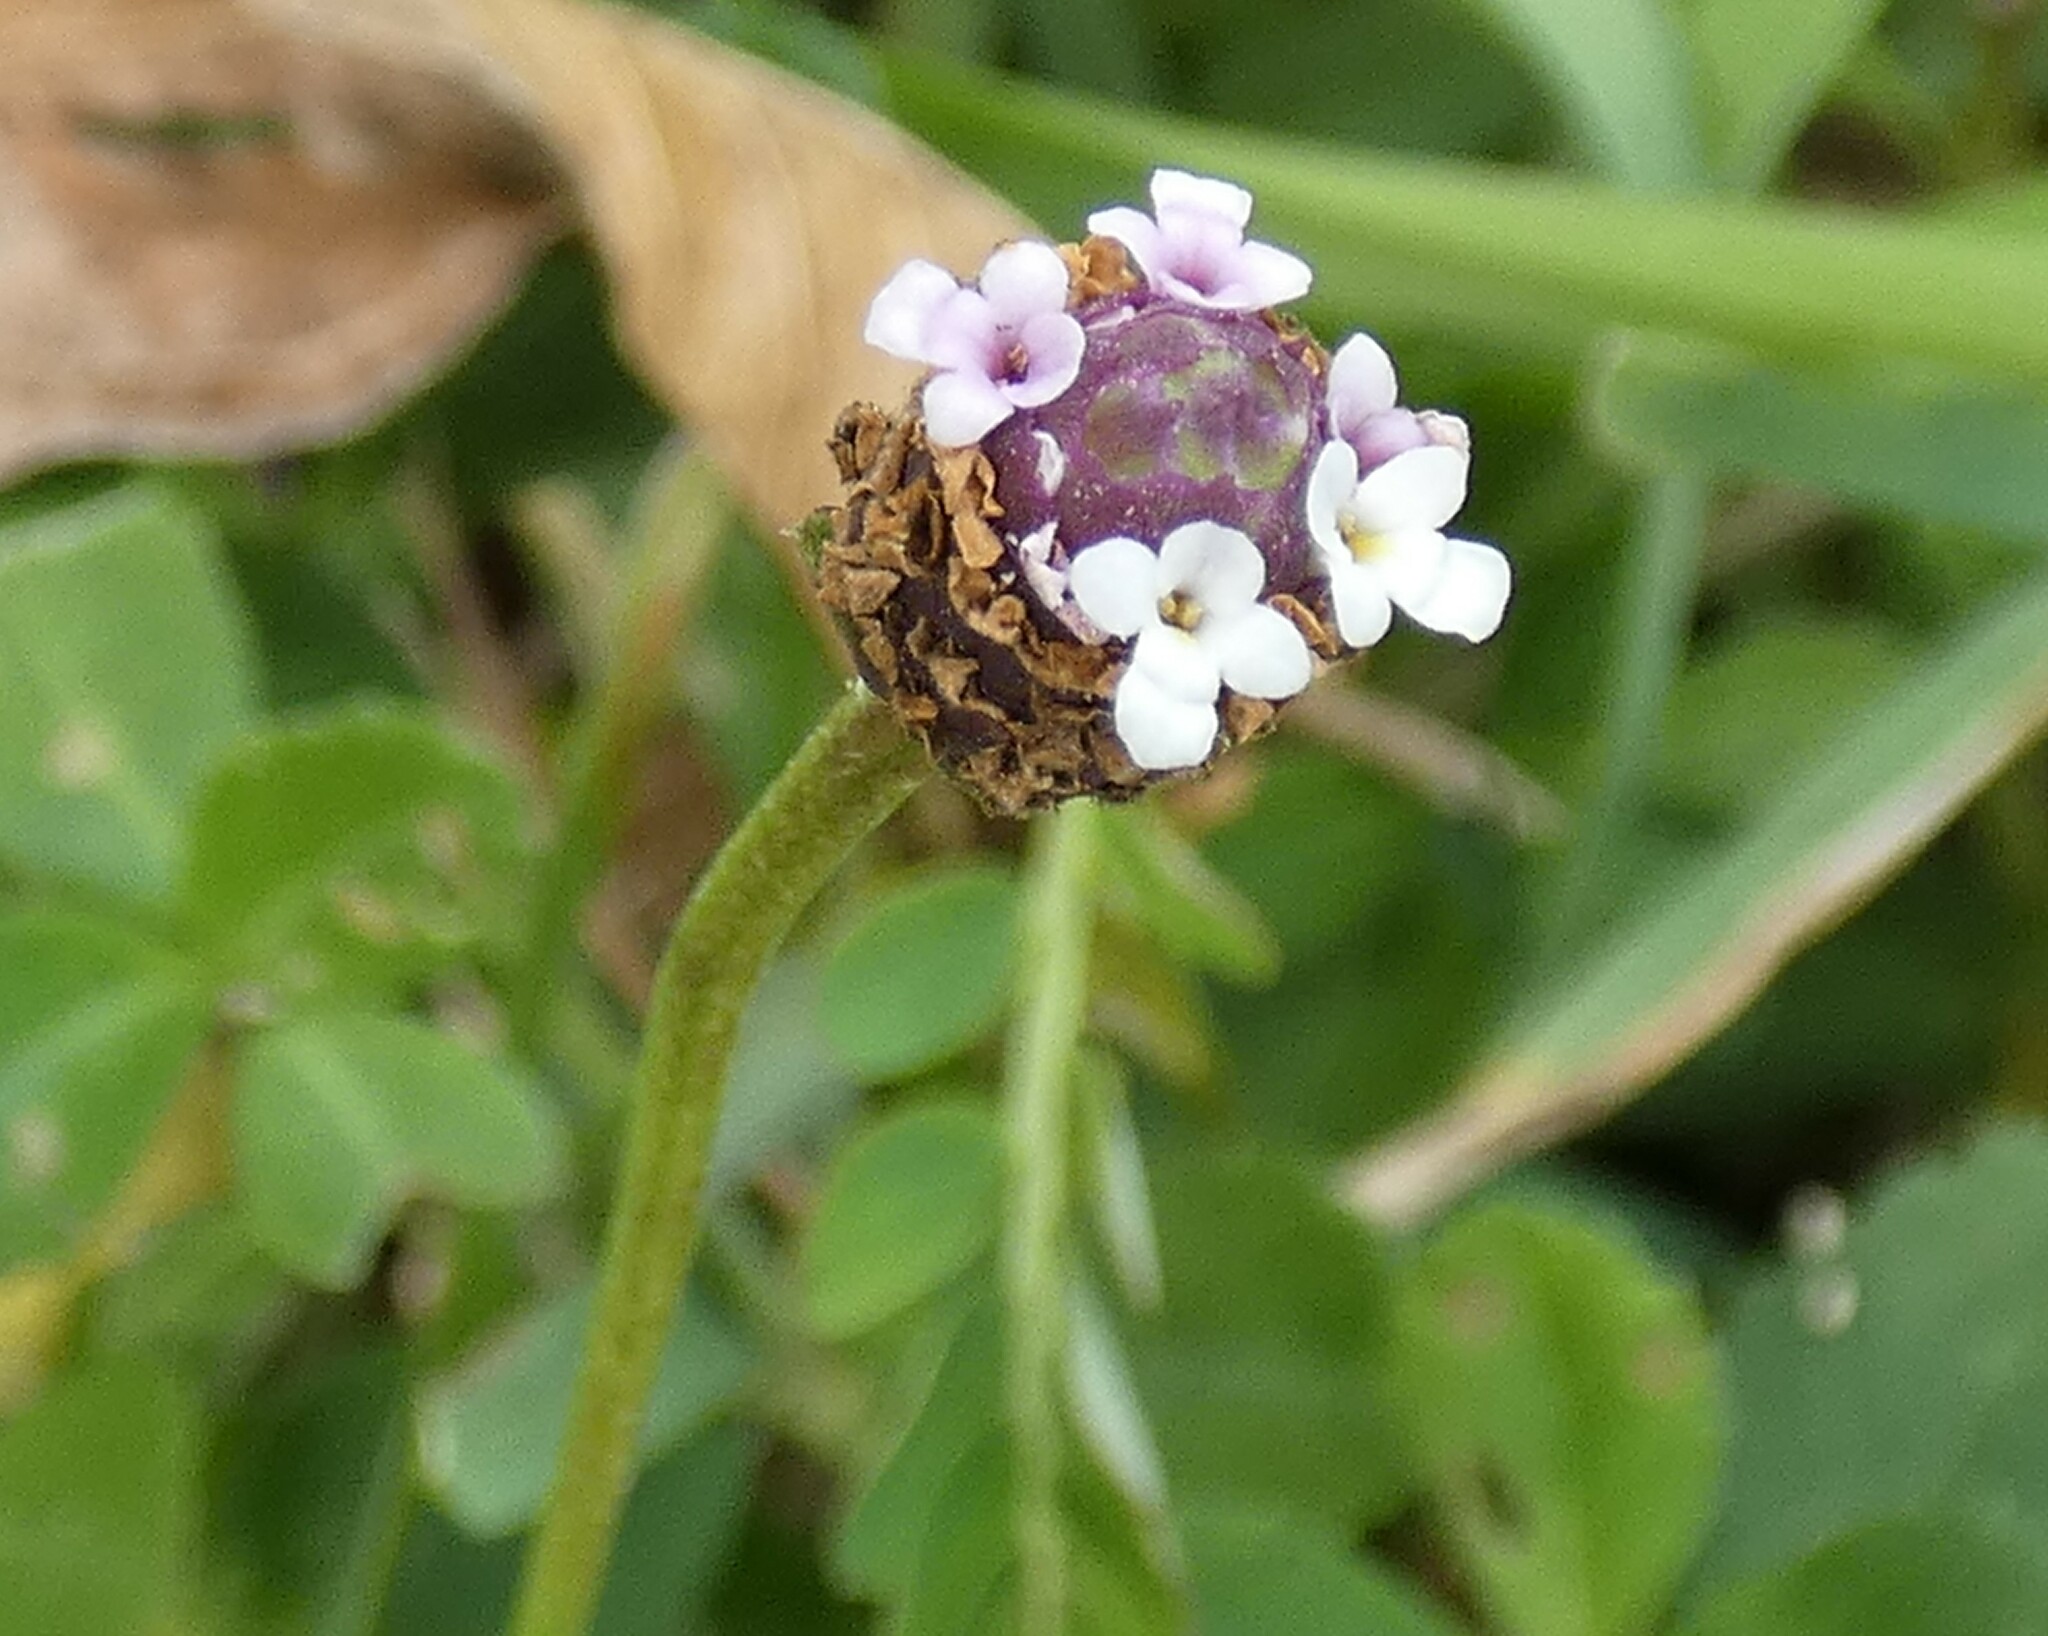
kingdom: Plantae
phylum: Tracheophyta
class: Magnoliopsida
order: Lamiales
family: Verbenaceae
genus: Phyla
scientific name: Phyla nodiflora
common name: Frogfruit
